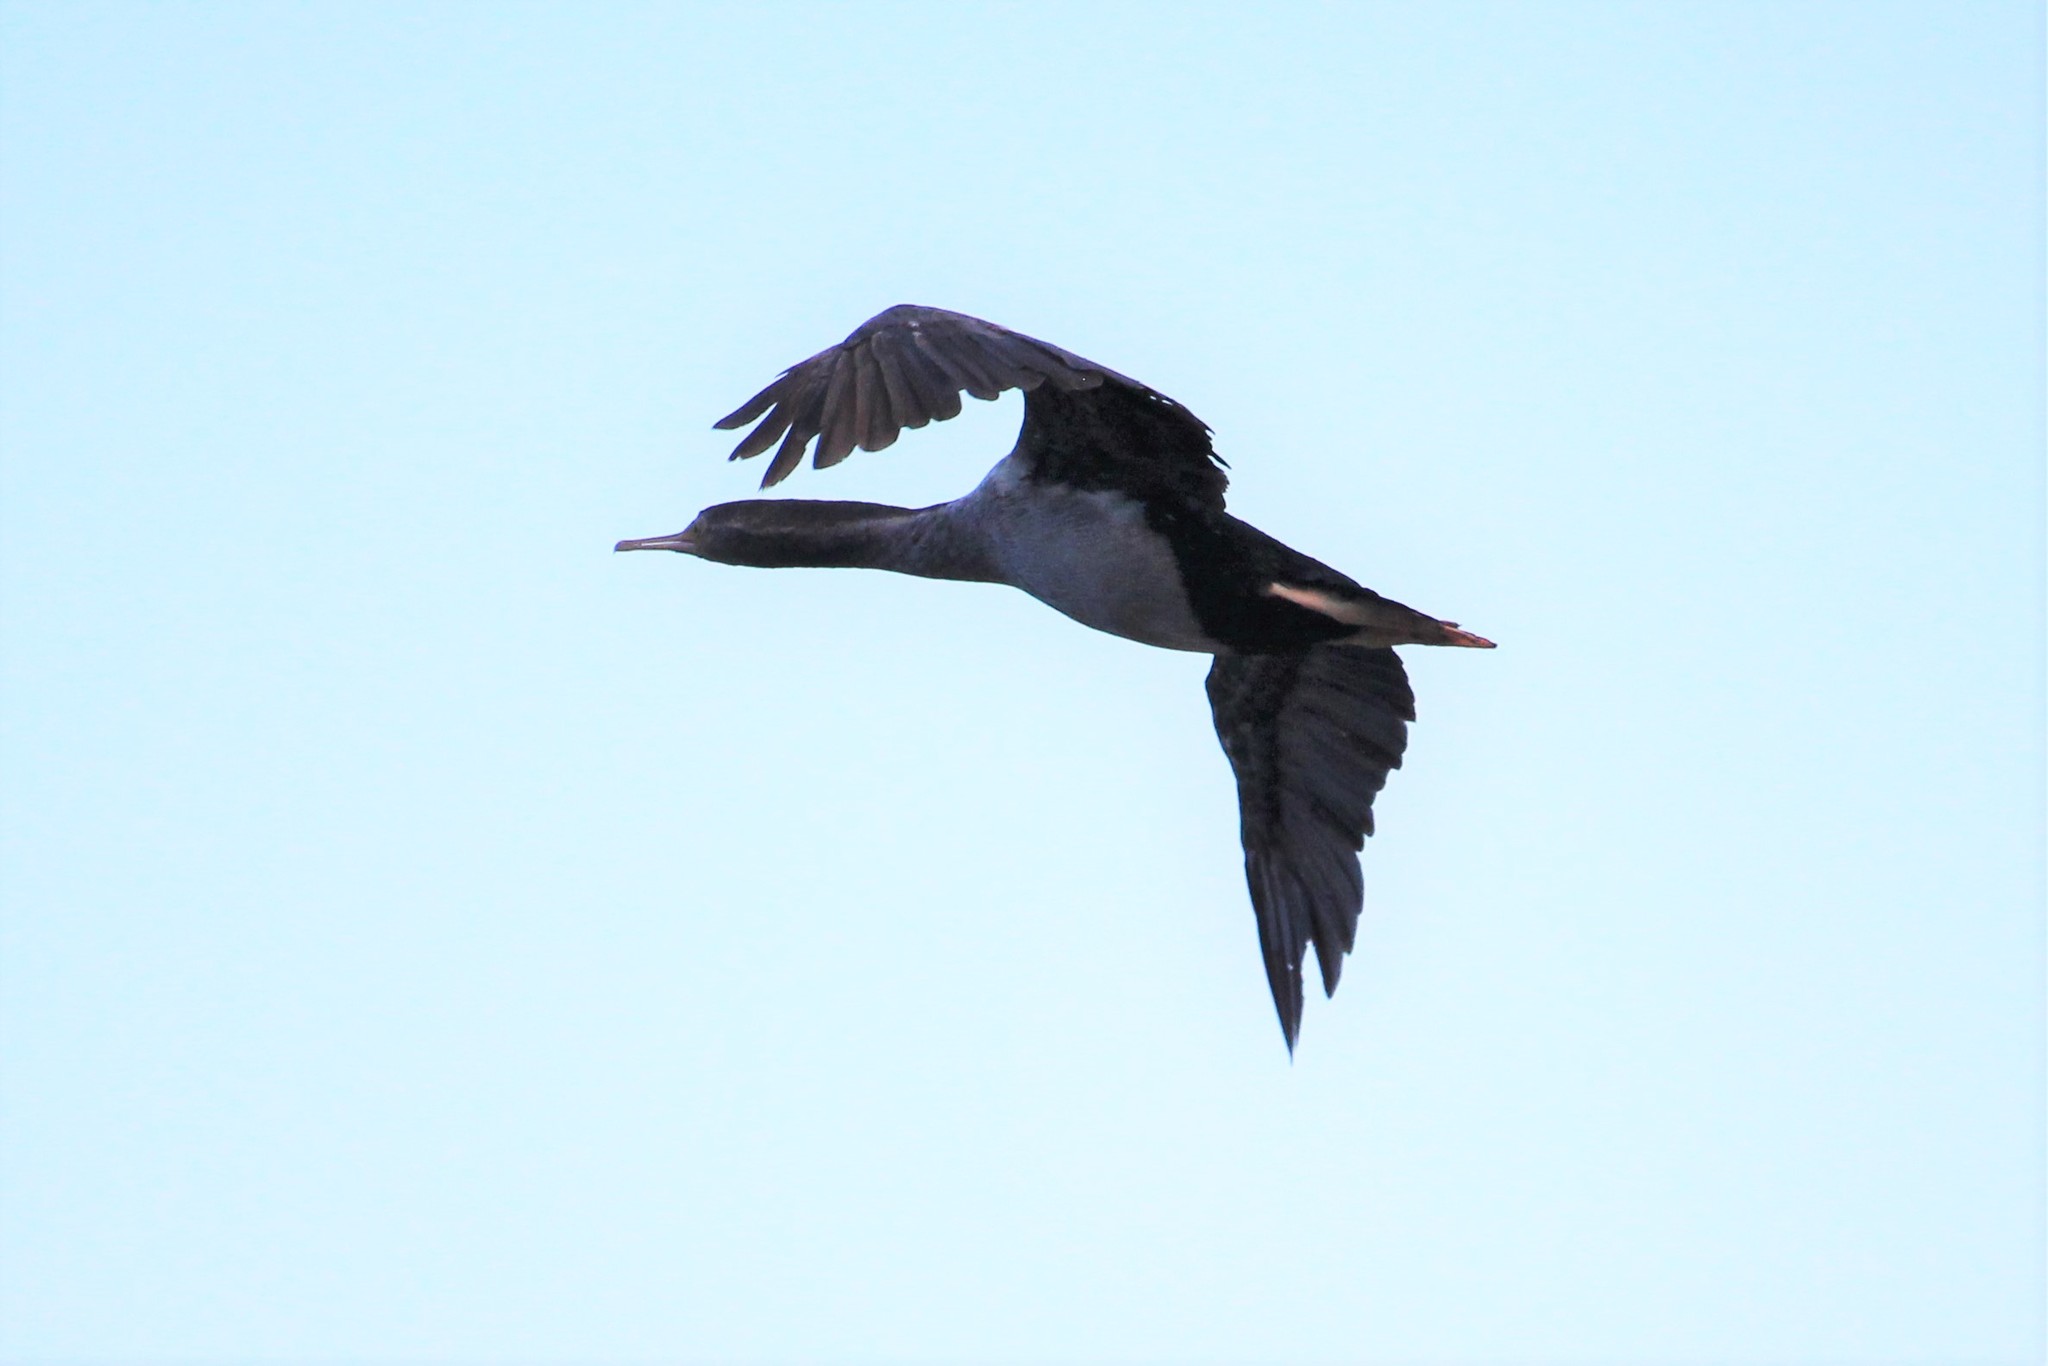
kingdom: Animalia
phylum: Chordata
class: Aves
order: Suliformes
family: Phalacrocoracidae
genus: Phalacrocorax
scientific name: Phalacrocorax punctatus
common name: Spotted shag
